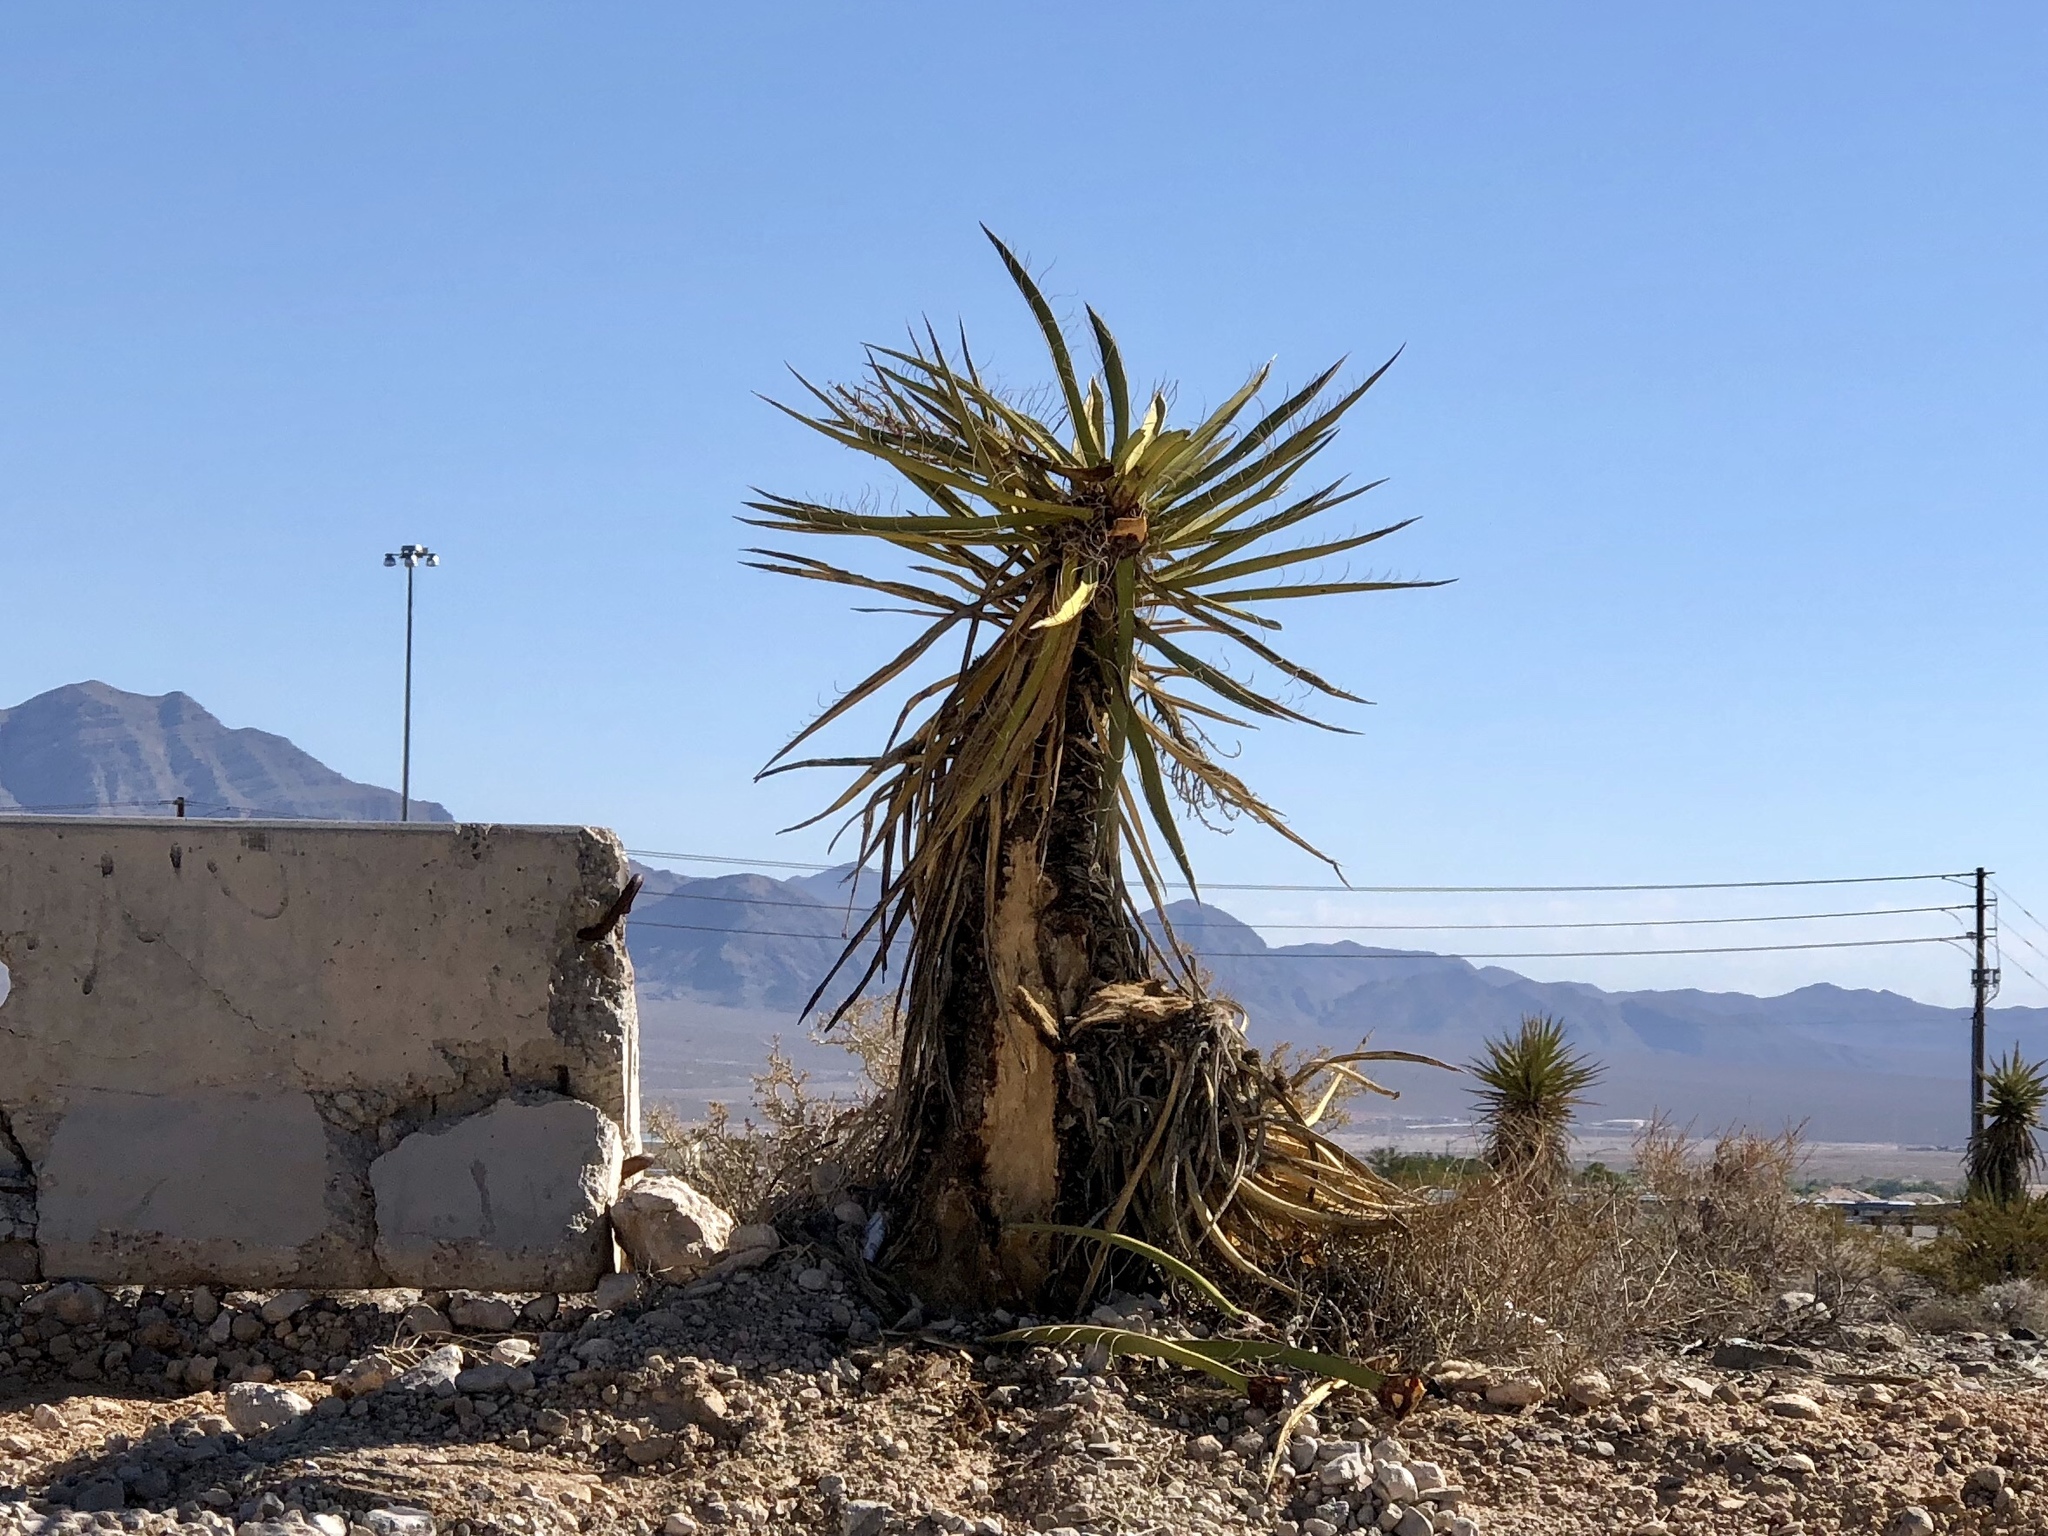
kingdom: Plantae
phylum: Tracheophyta
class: Liliopsida
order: Asparagales
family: Asparagaceae
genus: Yucca
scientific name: Yucca schidigera
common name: Mojave yucca
